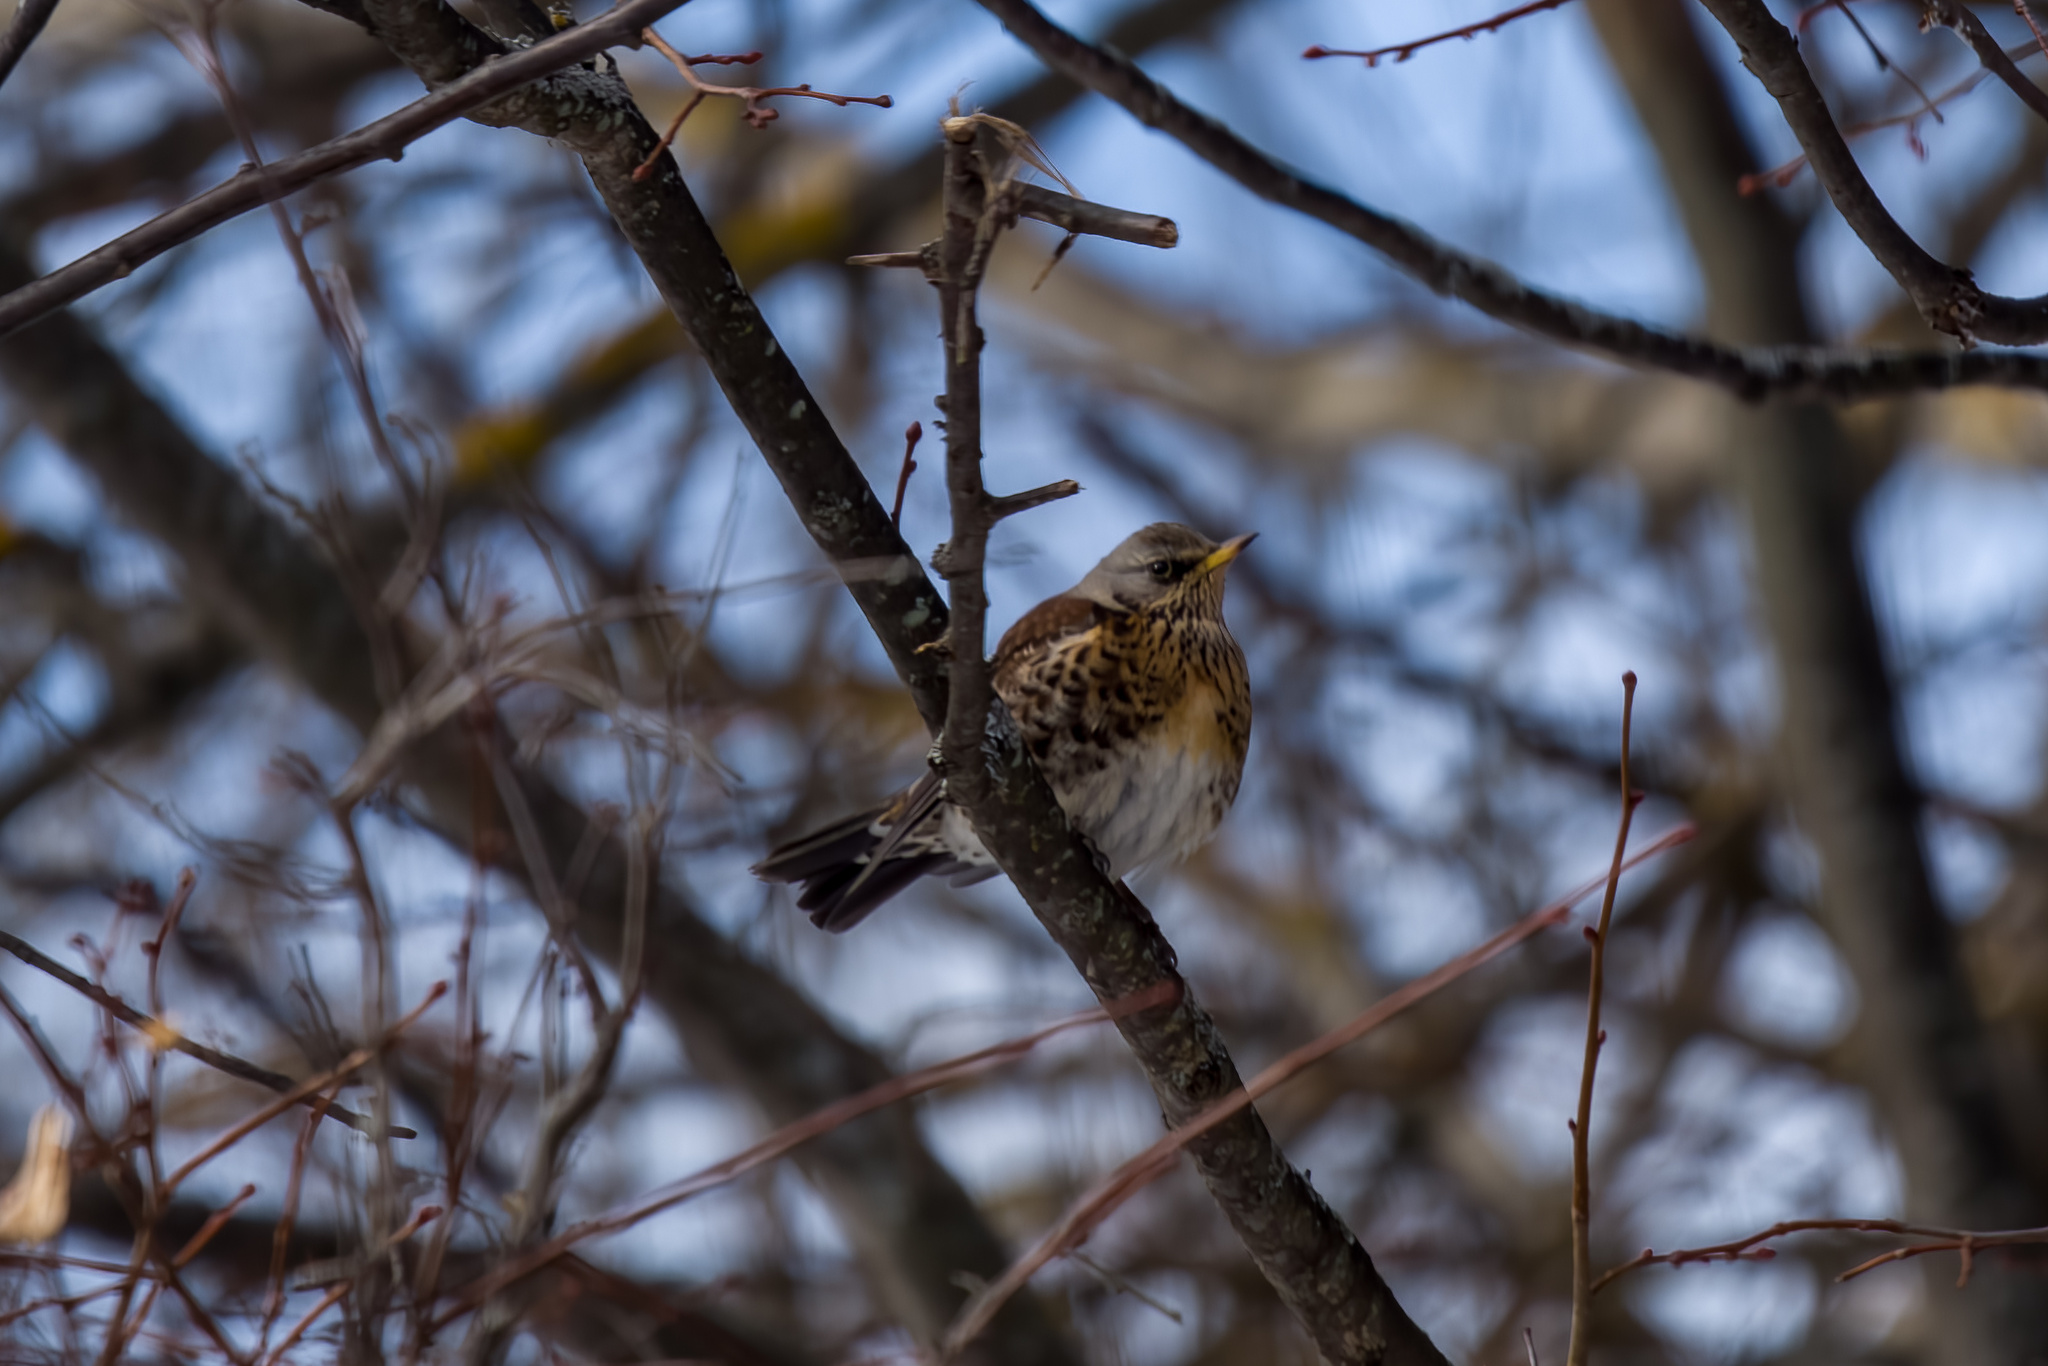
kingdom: Animalia
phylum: Chordata
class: Aves
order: Passeriformes
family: Turdidae
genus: Turdus
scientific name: Turdus pilaris
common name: Fieldfare
